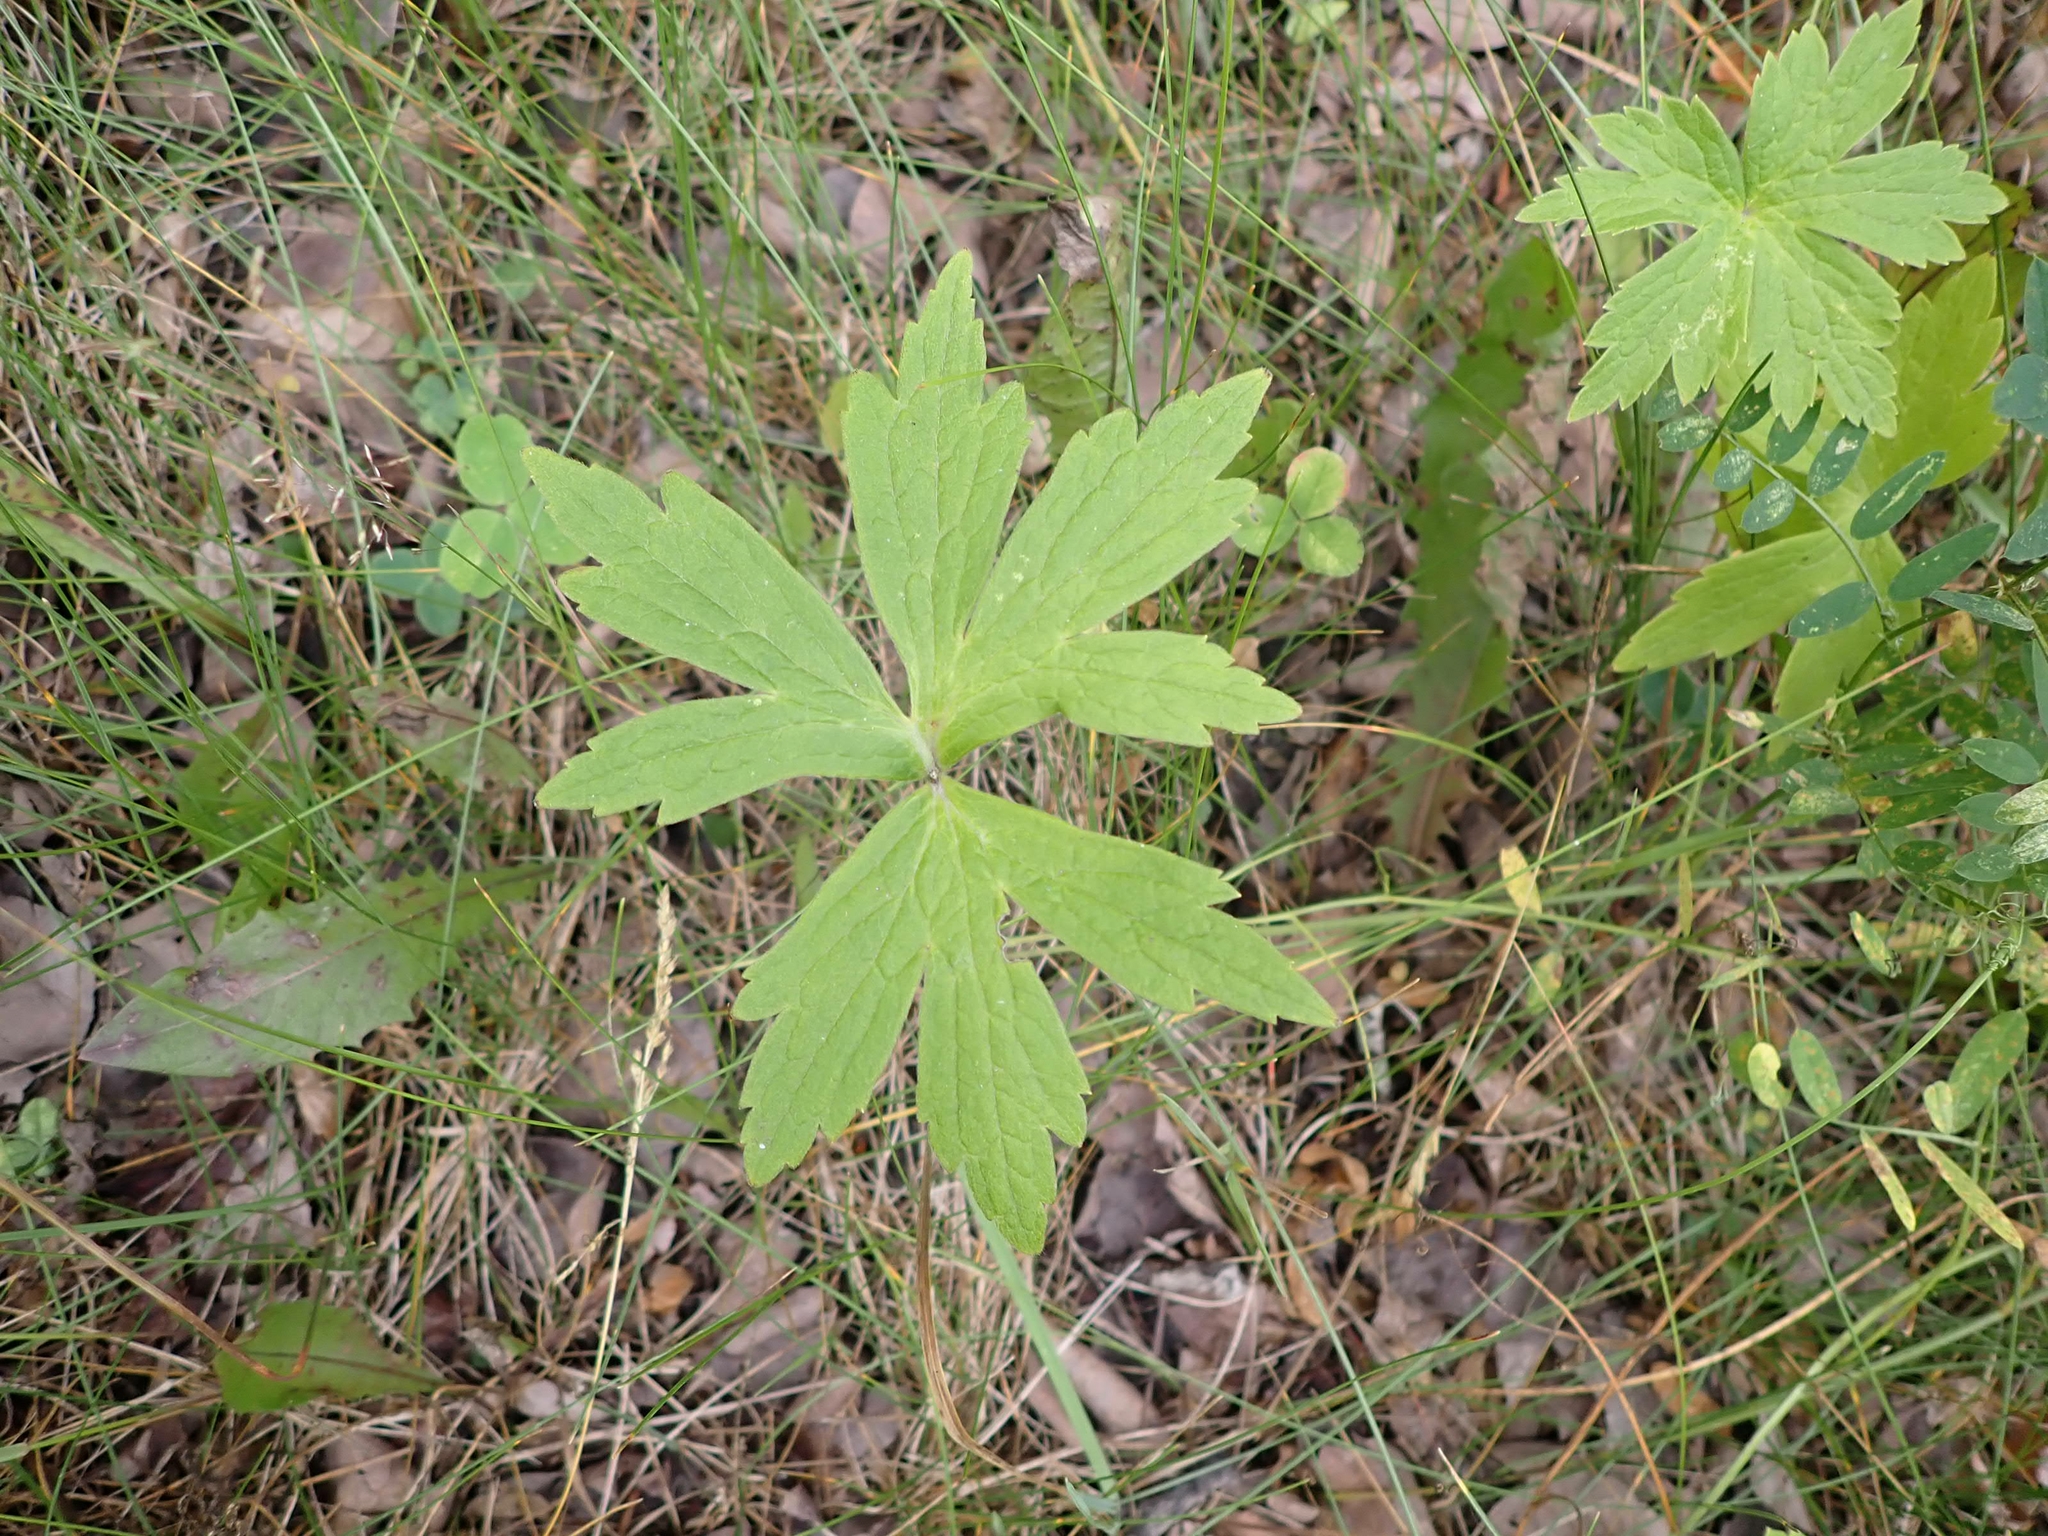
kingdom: Plantae
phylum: Tracheophyta
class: Magnoliopsida
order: Ranunculales
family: Ranunculaceae
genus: Anemonastrum
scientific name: Anemonastrum canadense
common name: Canada anemone
